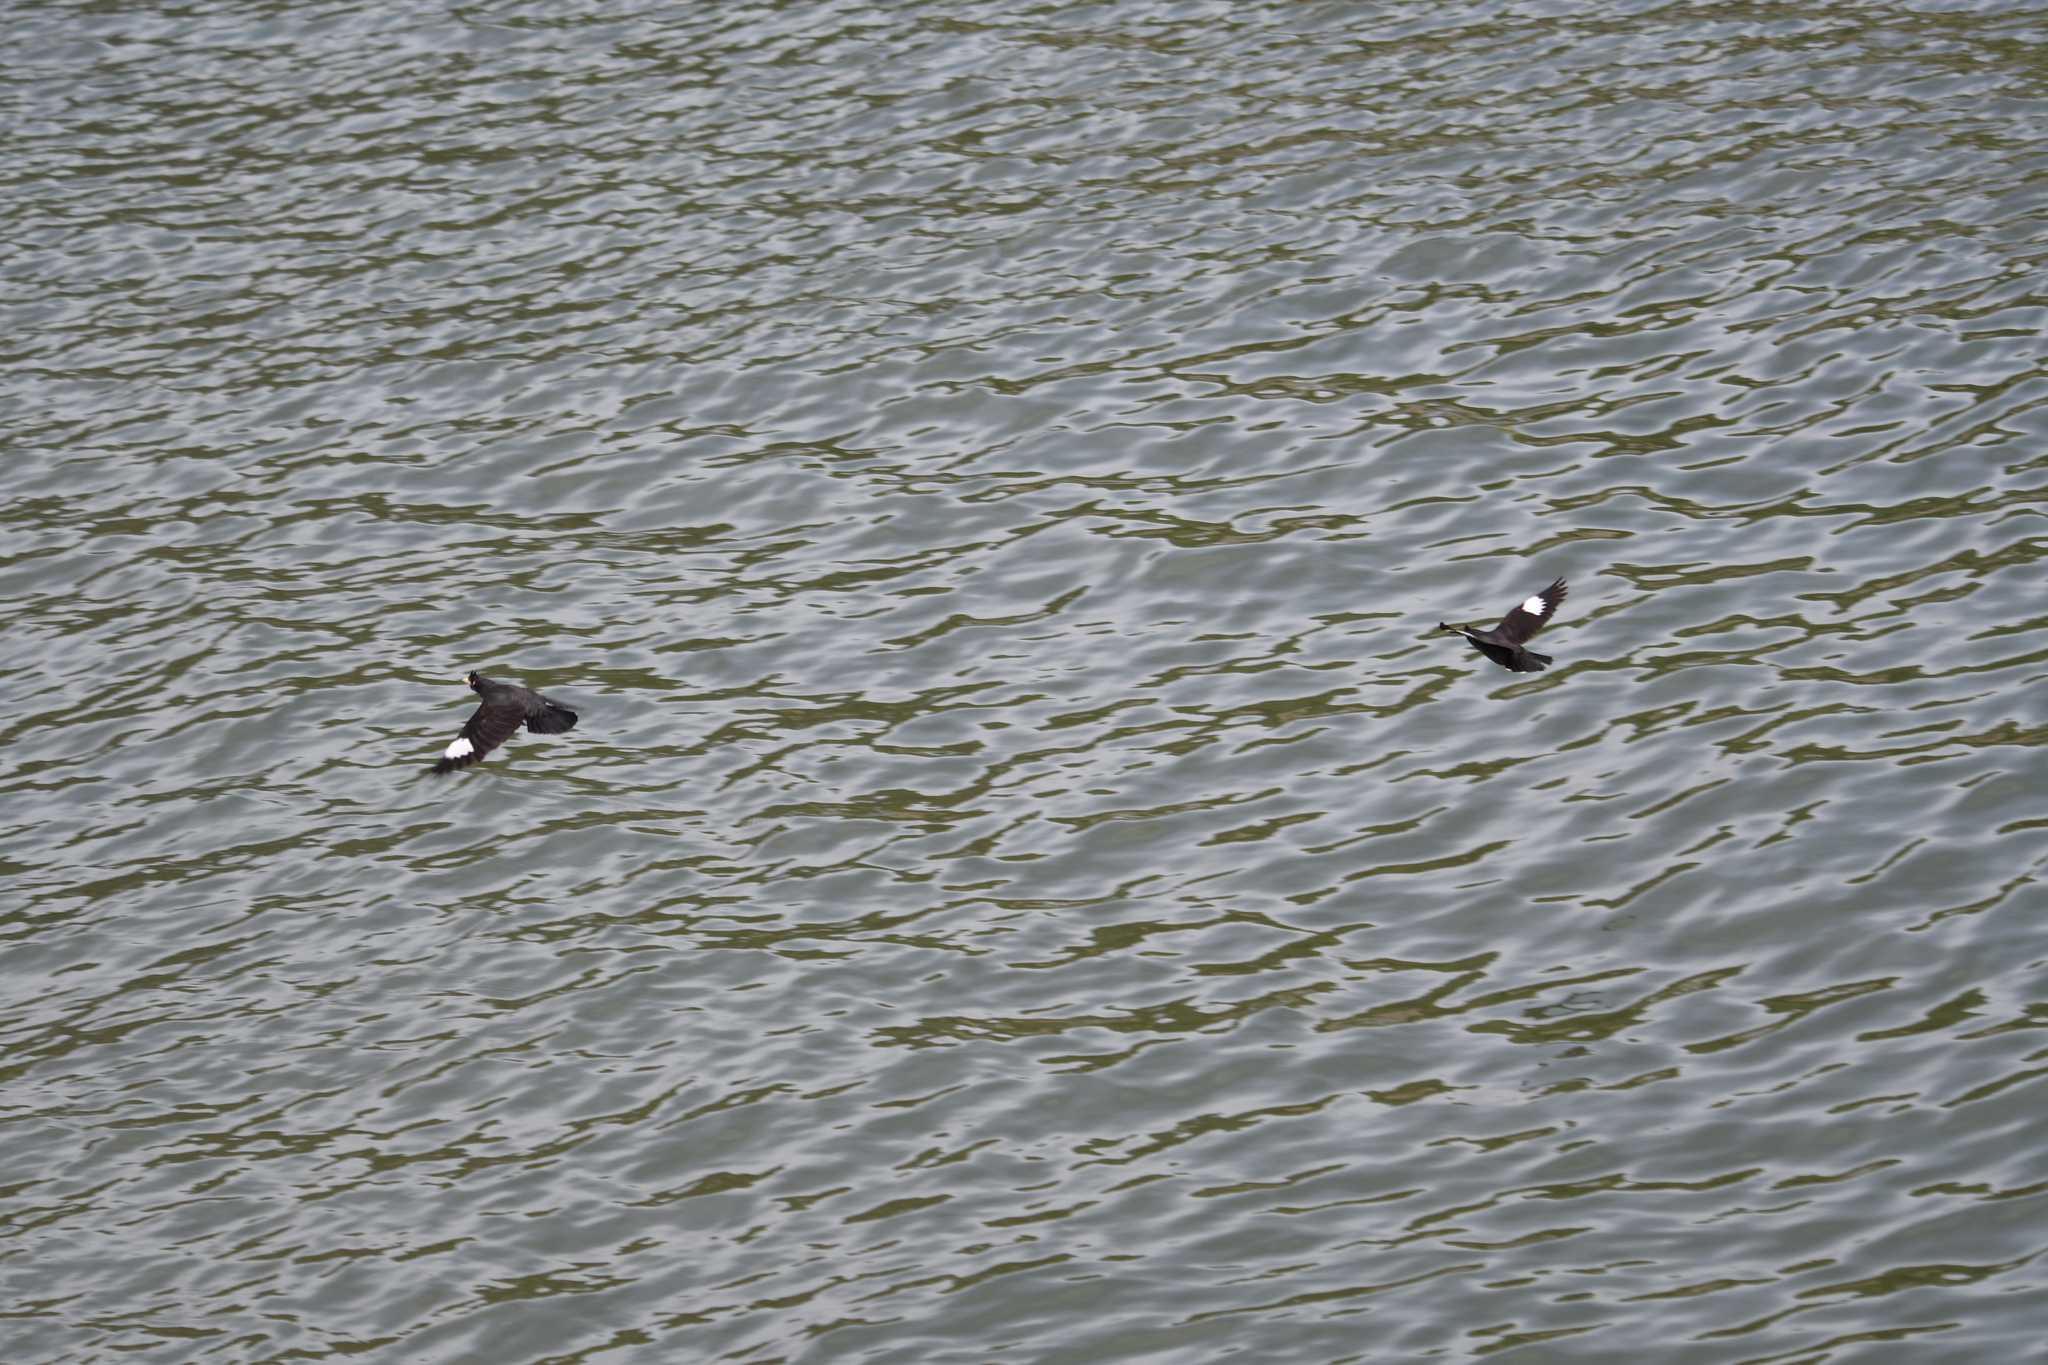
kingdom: Animalia
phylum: Chordata
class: Aves
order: Passeriformes
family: Sturnidae
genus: Acridotheres
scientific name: Acridotheres cristatellus
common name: Crested myna
